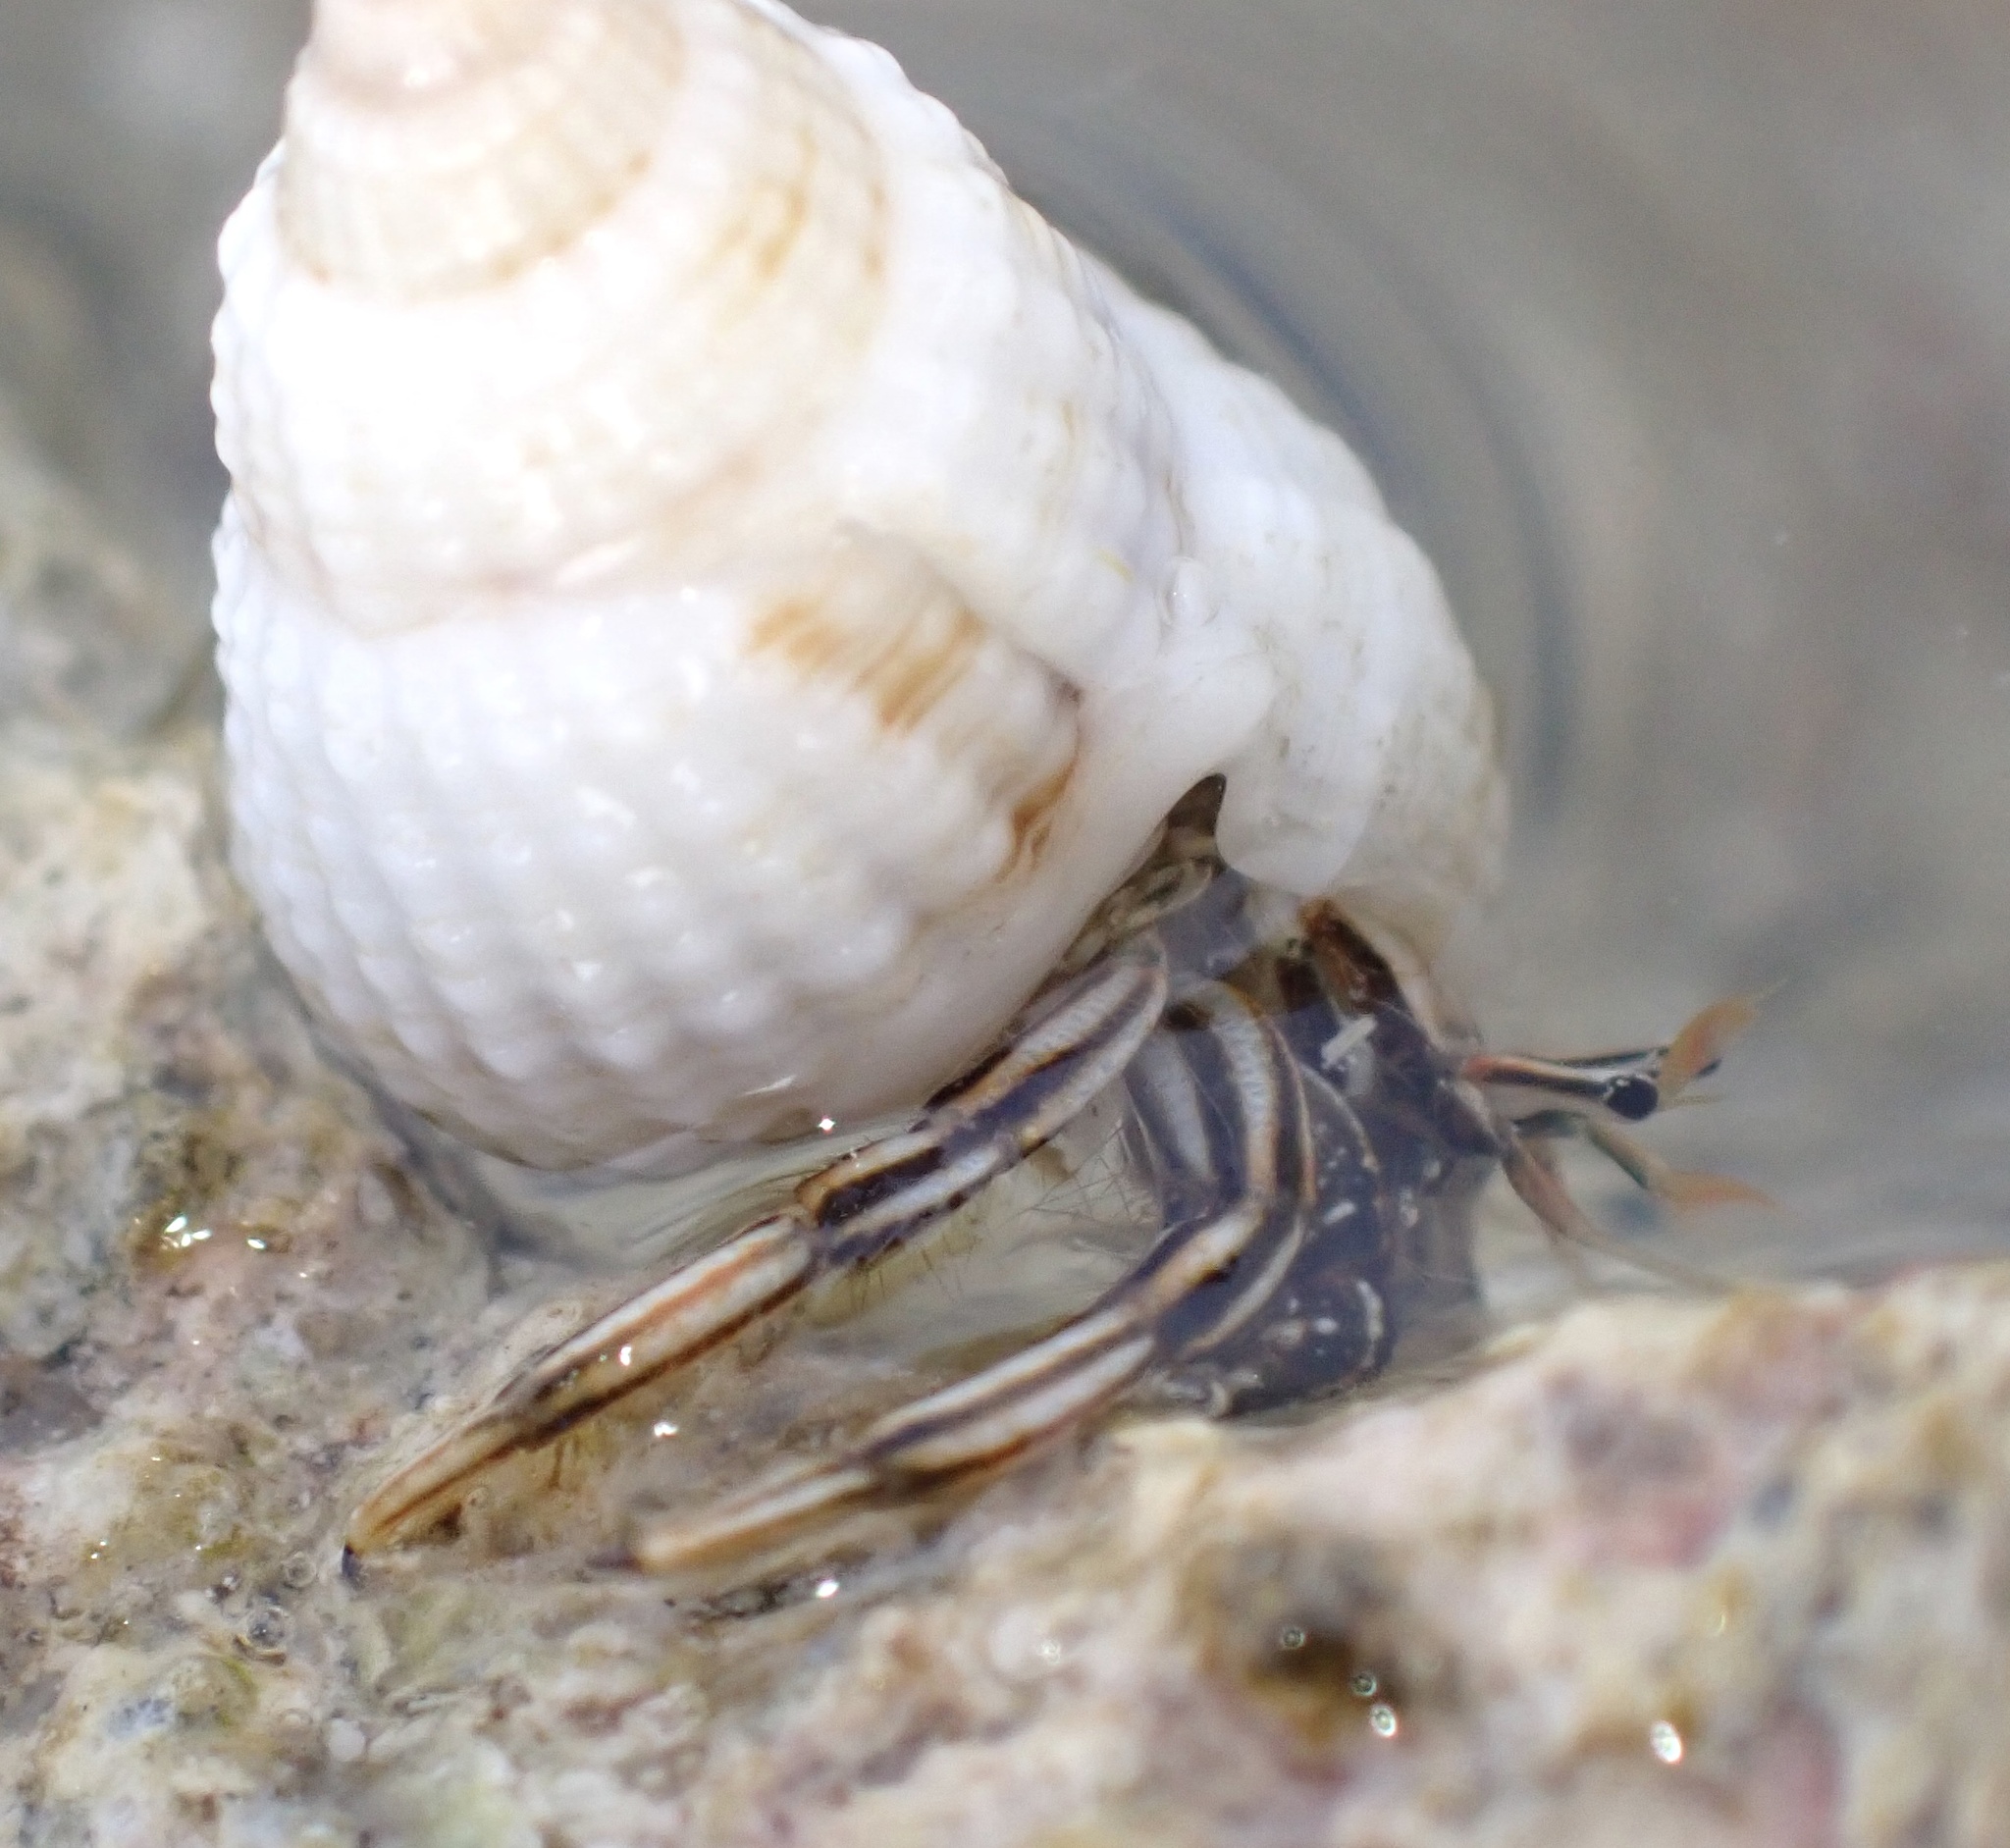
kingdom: Animalia
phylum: Arthropoda
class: Malacostraca
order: Decapoda
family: Diogenidae
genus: Clibanarius
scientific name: Clibanarius signatus
